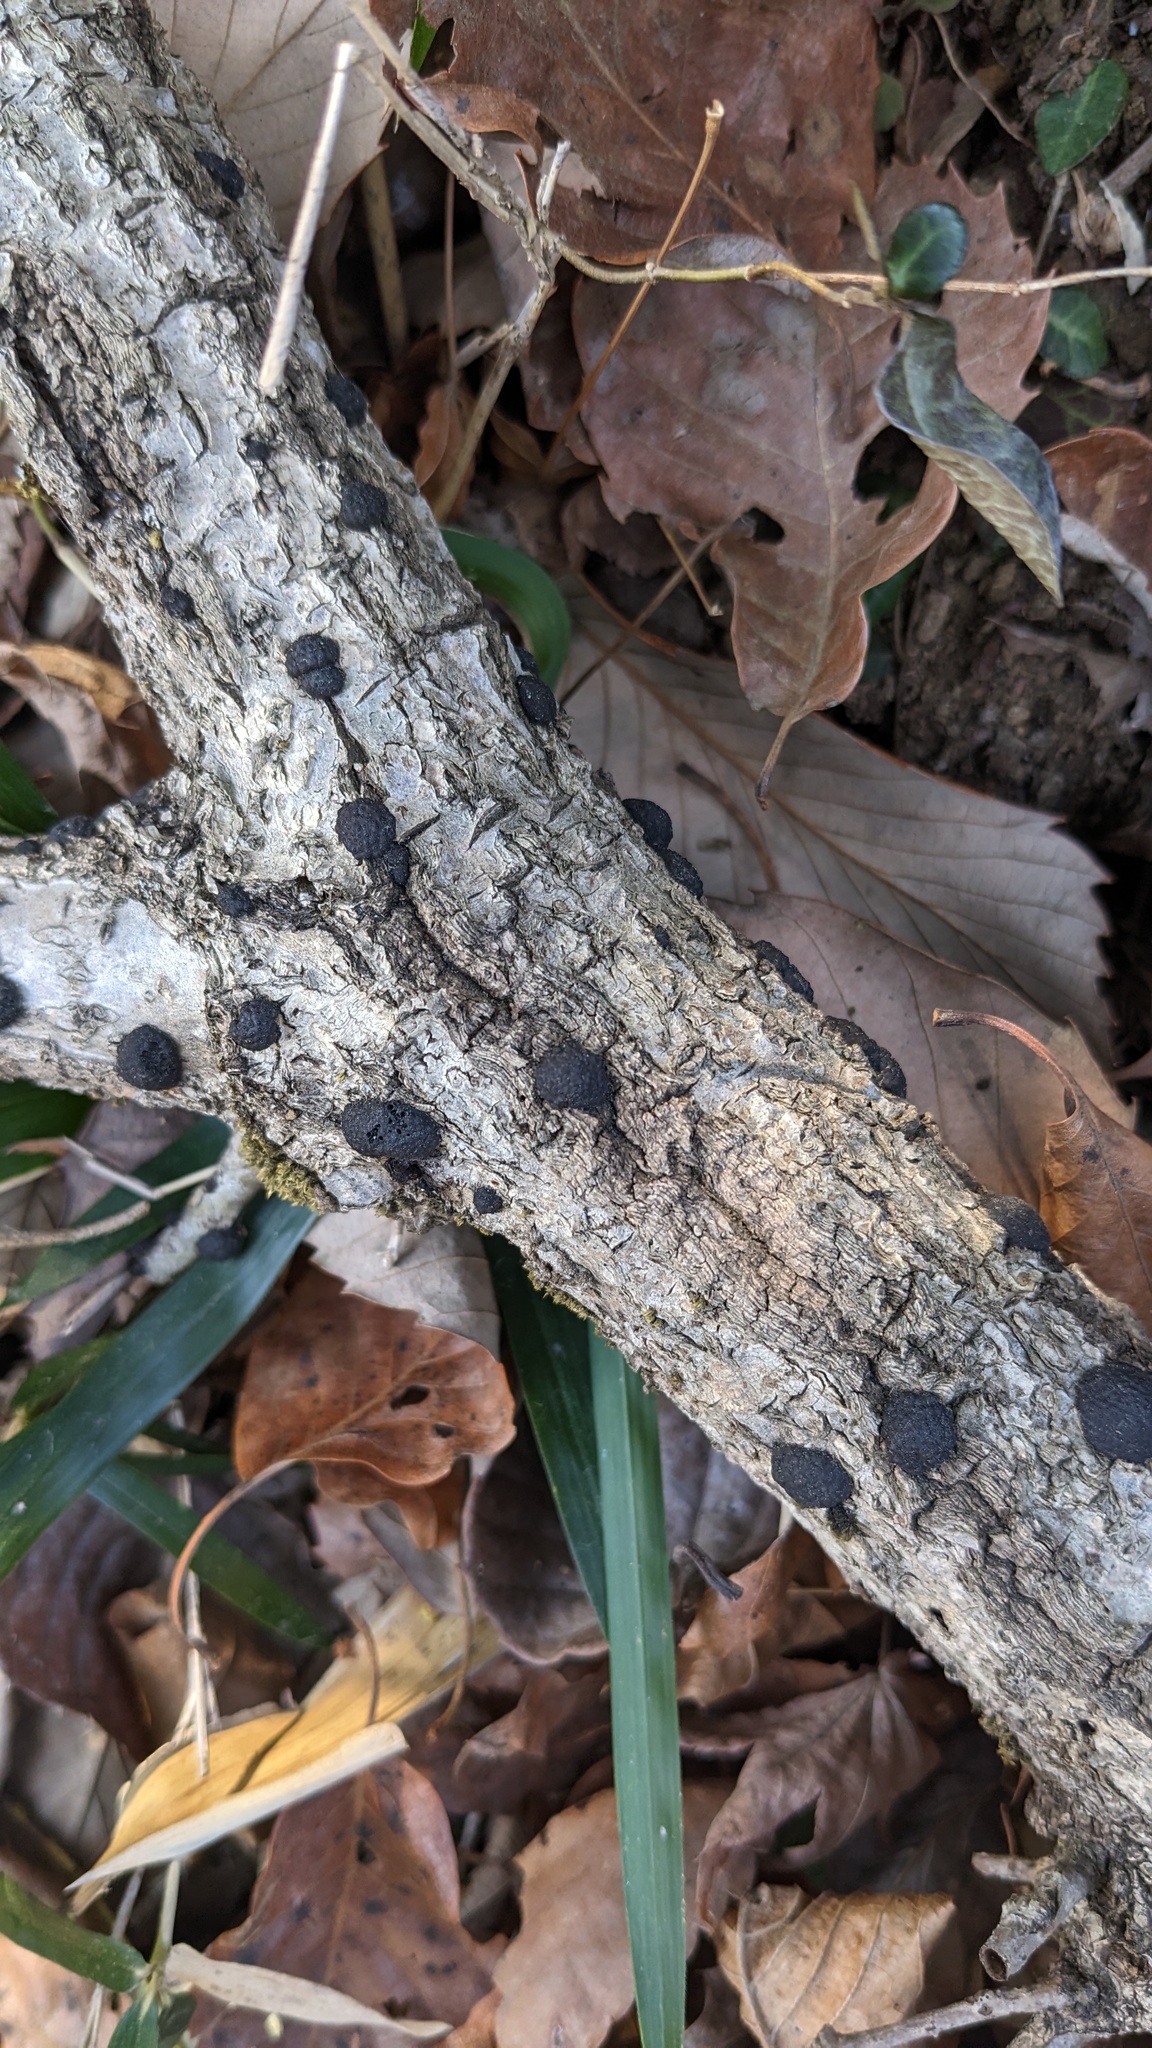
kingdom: Fungi
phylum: Ascomycota
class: Sordariomycetes
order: Xylariales
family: Hypoxylaceae
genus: Annulohypoxylon
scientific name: Annulohypoxylon truncatum
